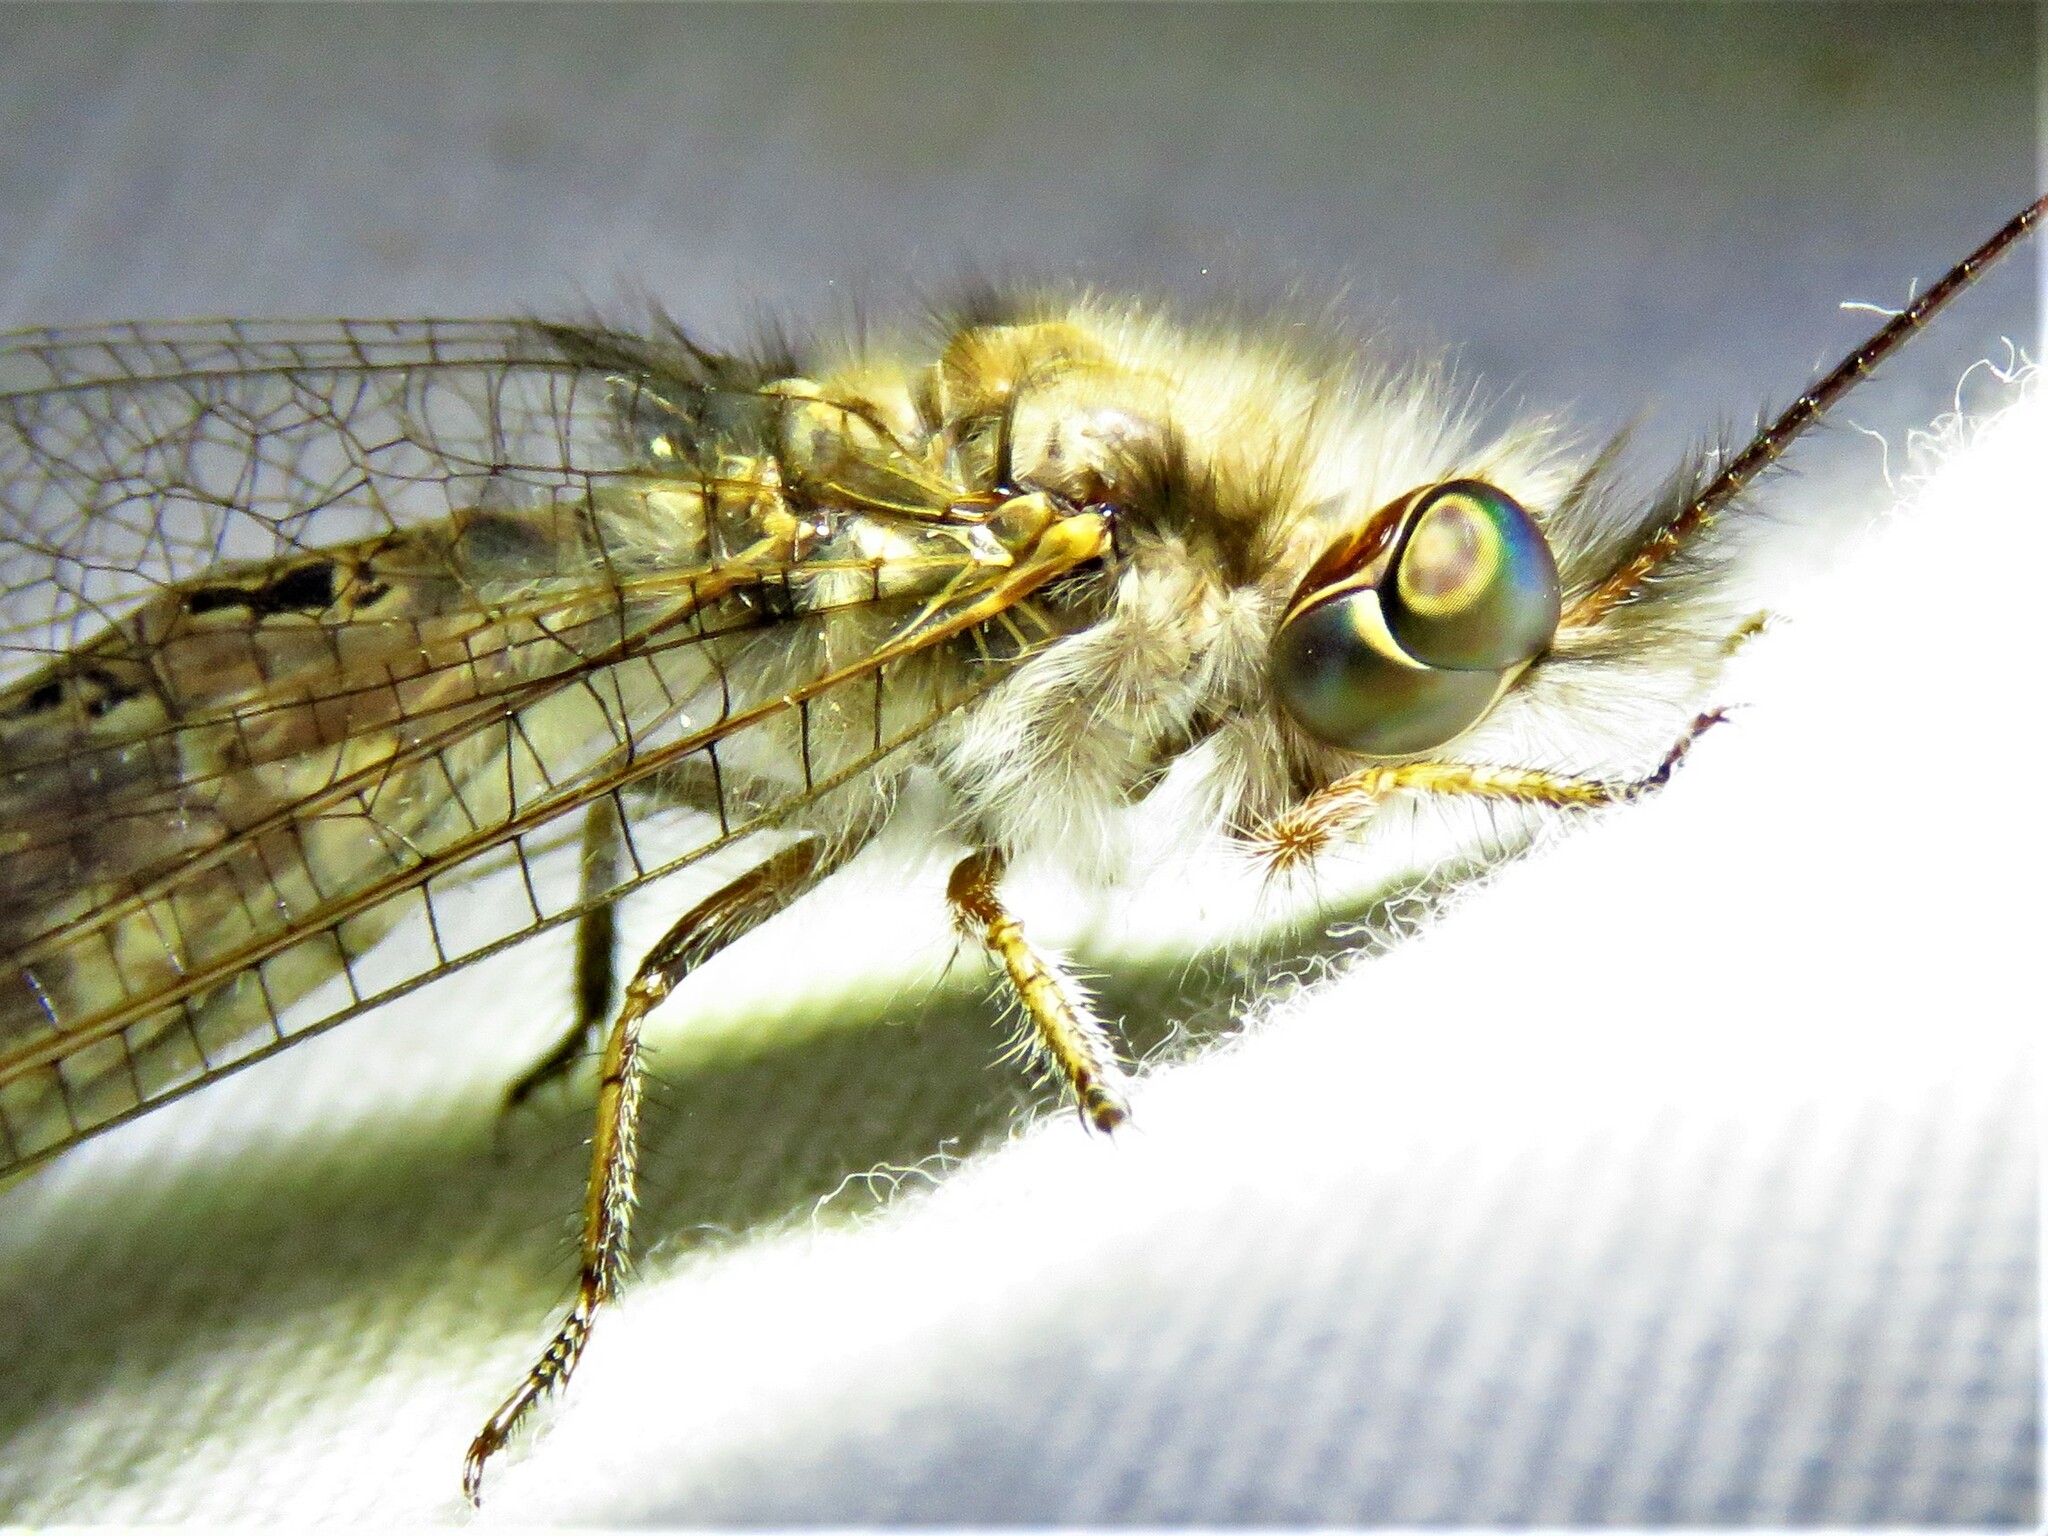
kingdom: Animalia
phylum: Arthropoda
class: Insecta
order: Neuroptera
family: Ascalaphidae
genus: Ululodes
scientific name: Ululodes macleayanus
